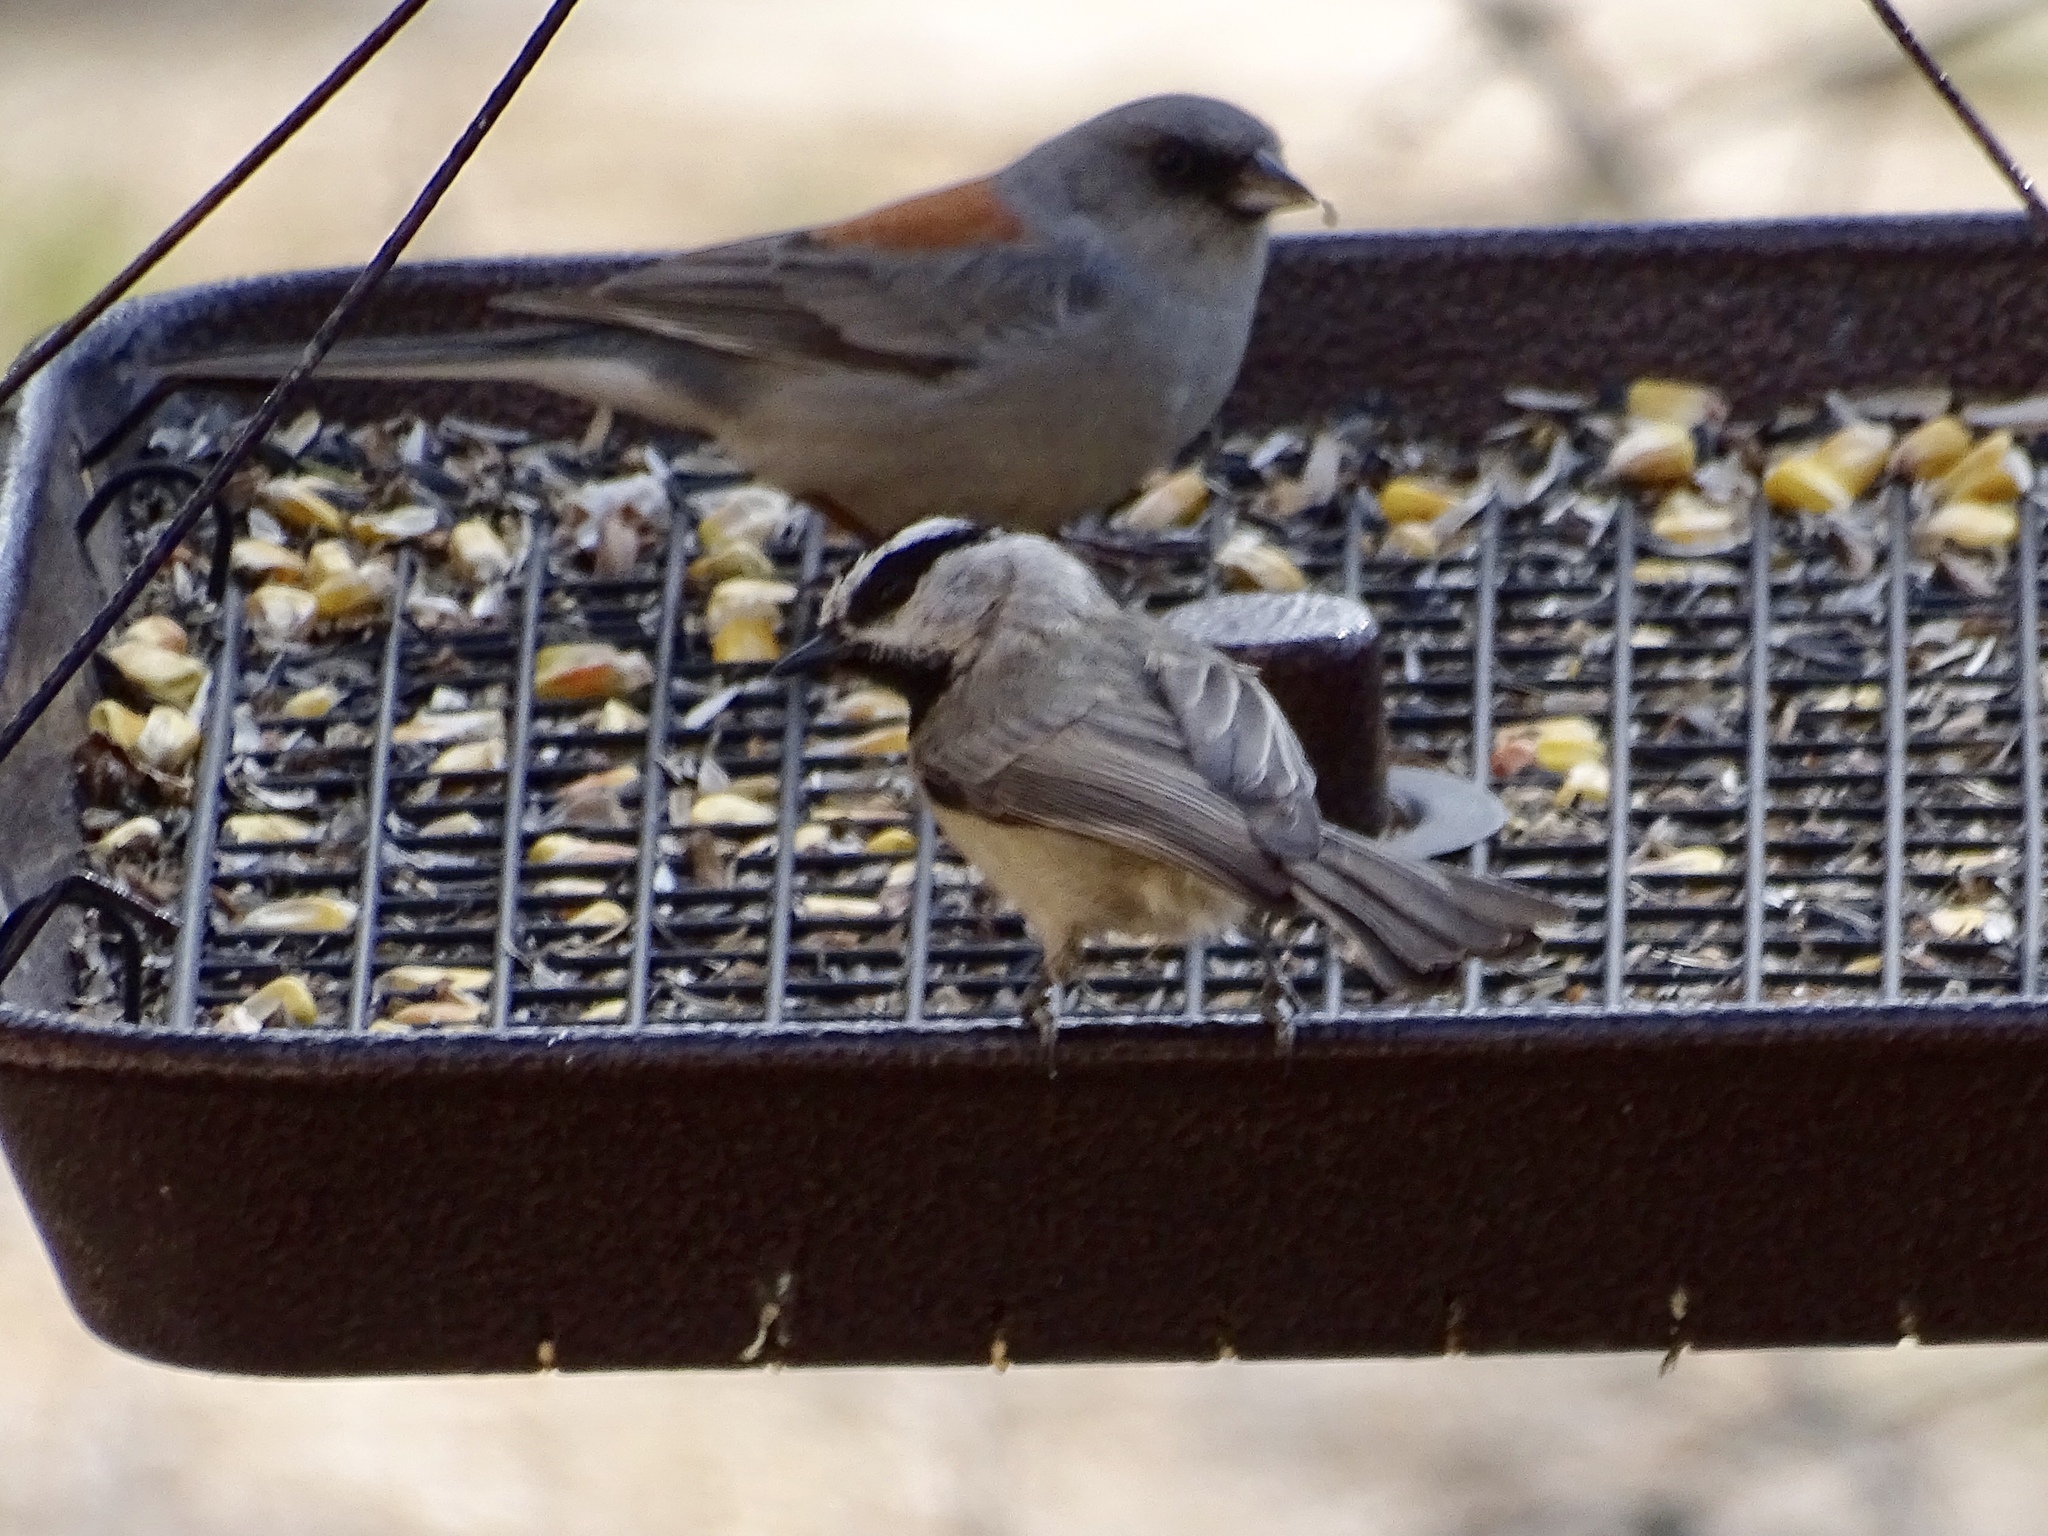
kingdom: Animalia
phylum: Chordata
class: Aves
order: Passeriformes
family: Paridae
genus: Poecile
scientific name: Poecile gambeli
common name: Mountain chickadee
